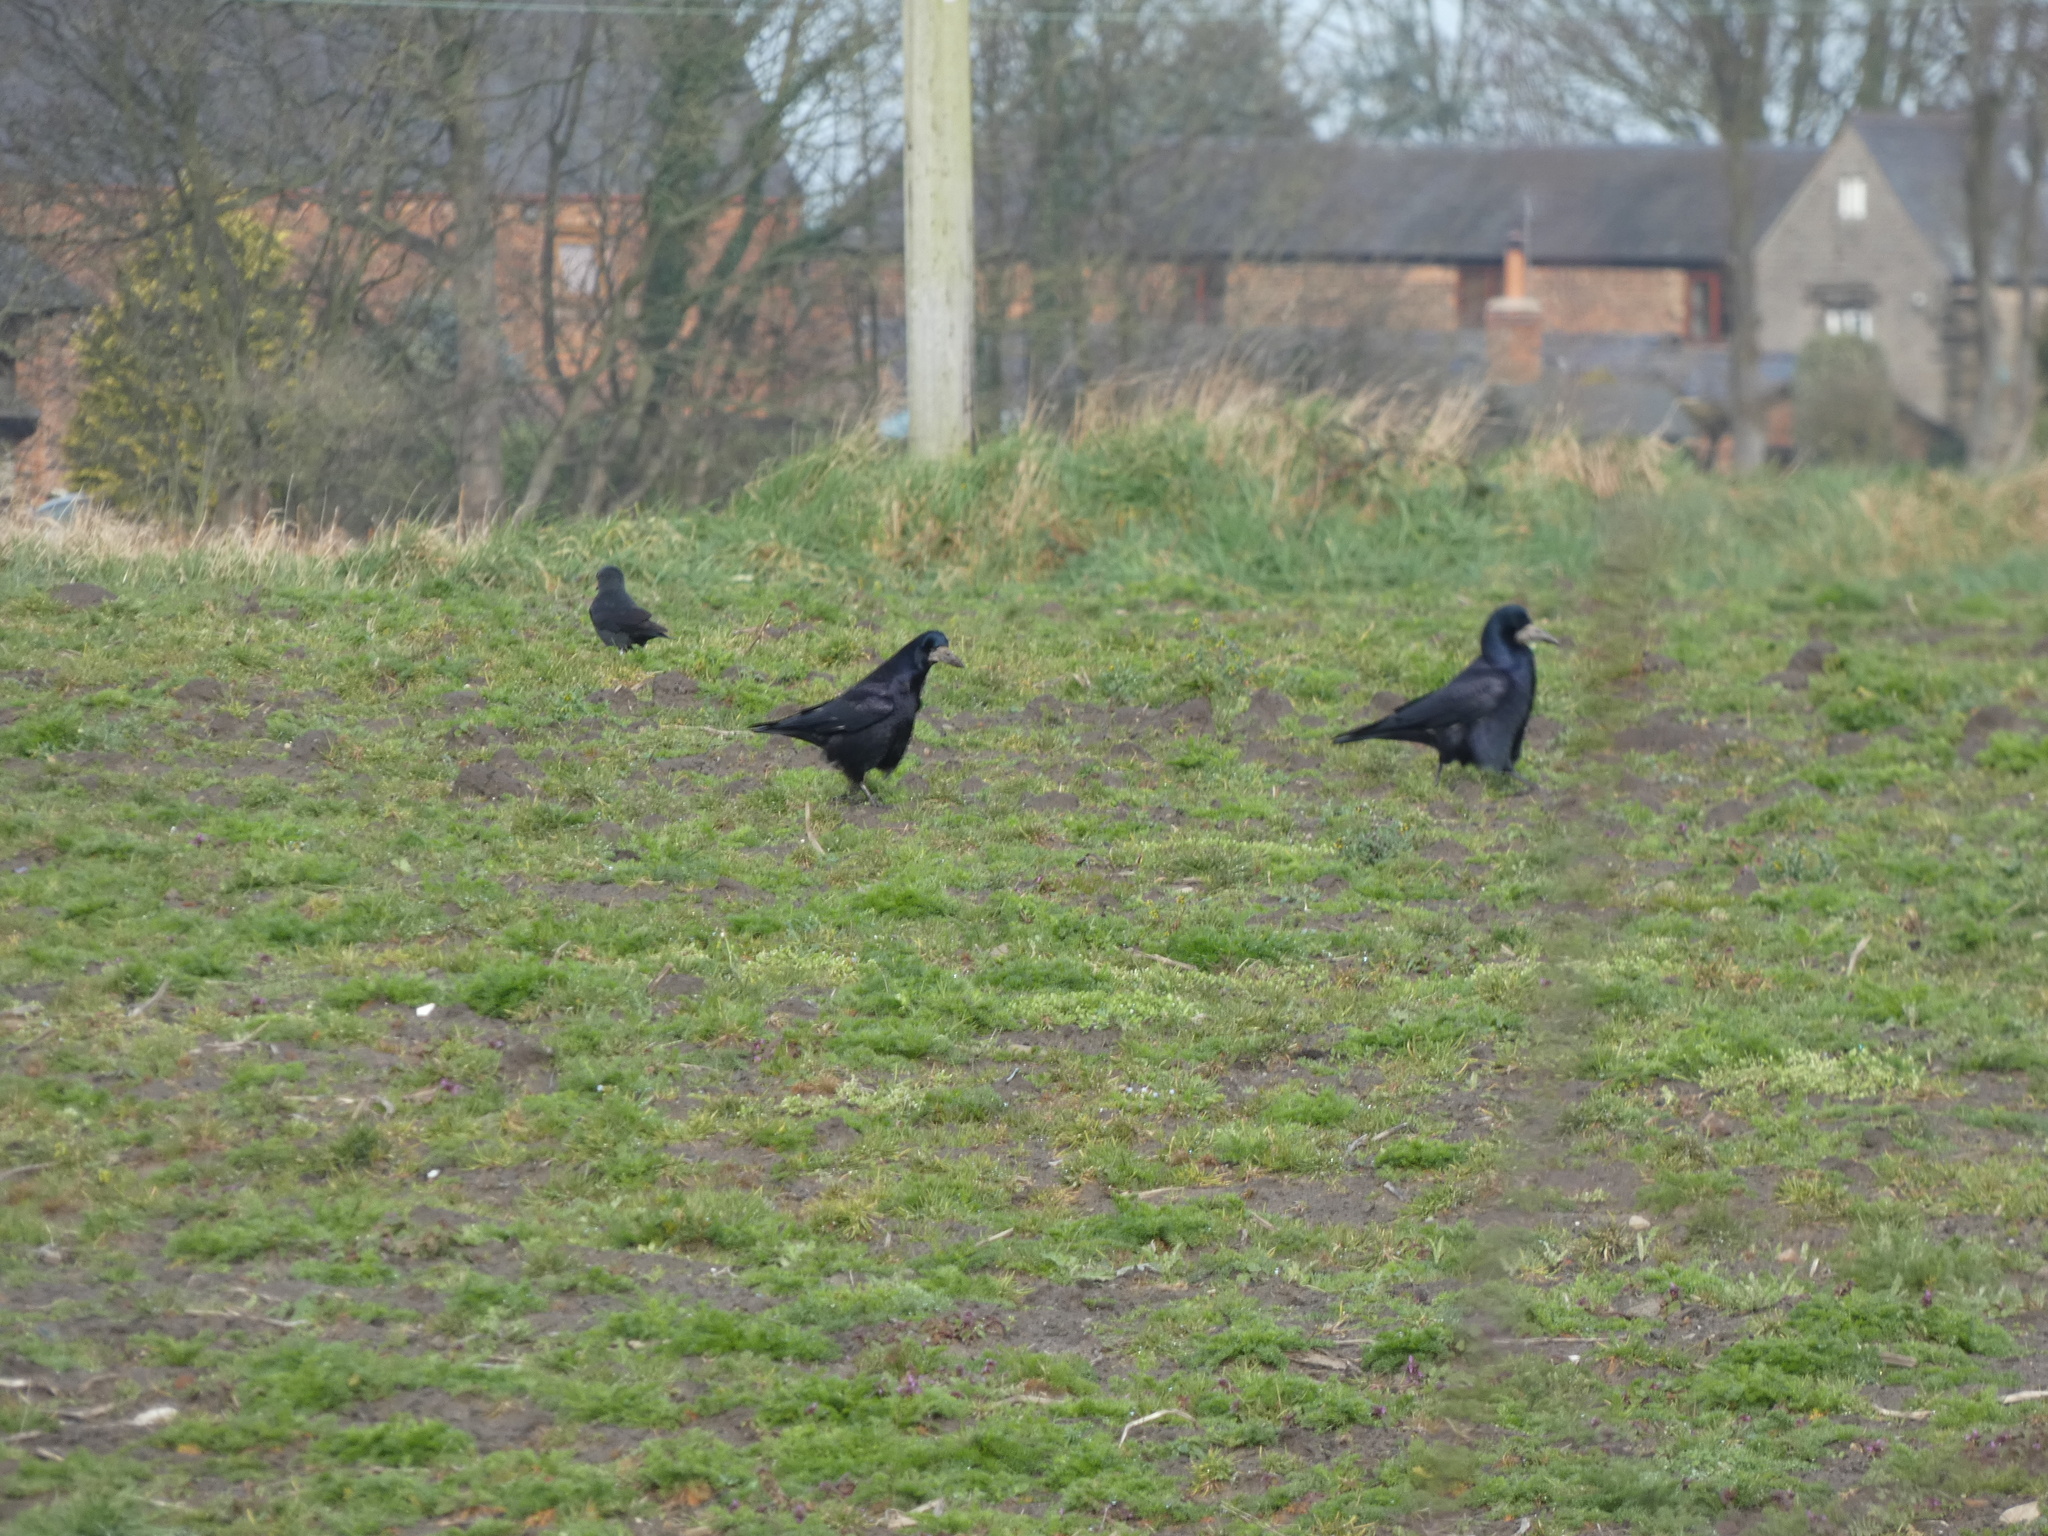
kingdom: Animalia
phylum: Chordata
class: Aves
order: Passeriformes
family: Corvidae
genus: Corvus
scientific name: Corvus frugilegus
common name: Rook
